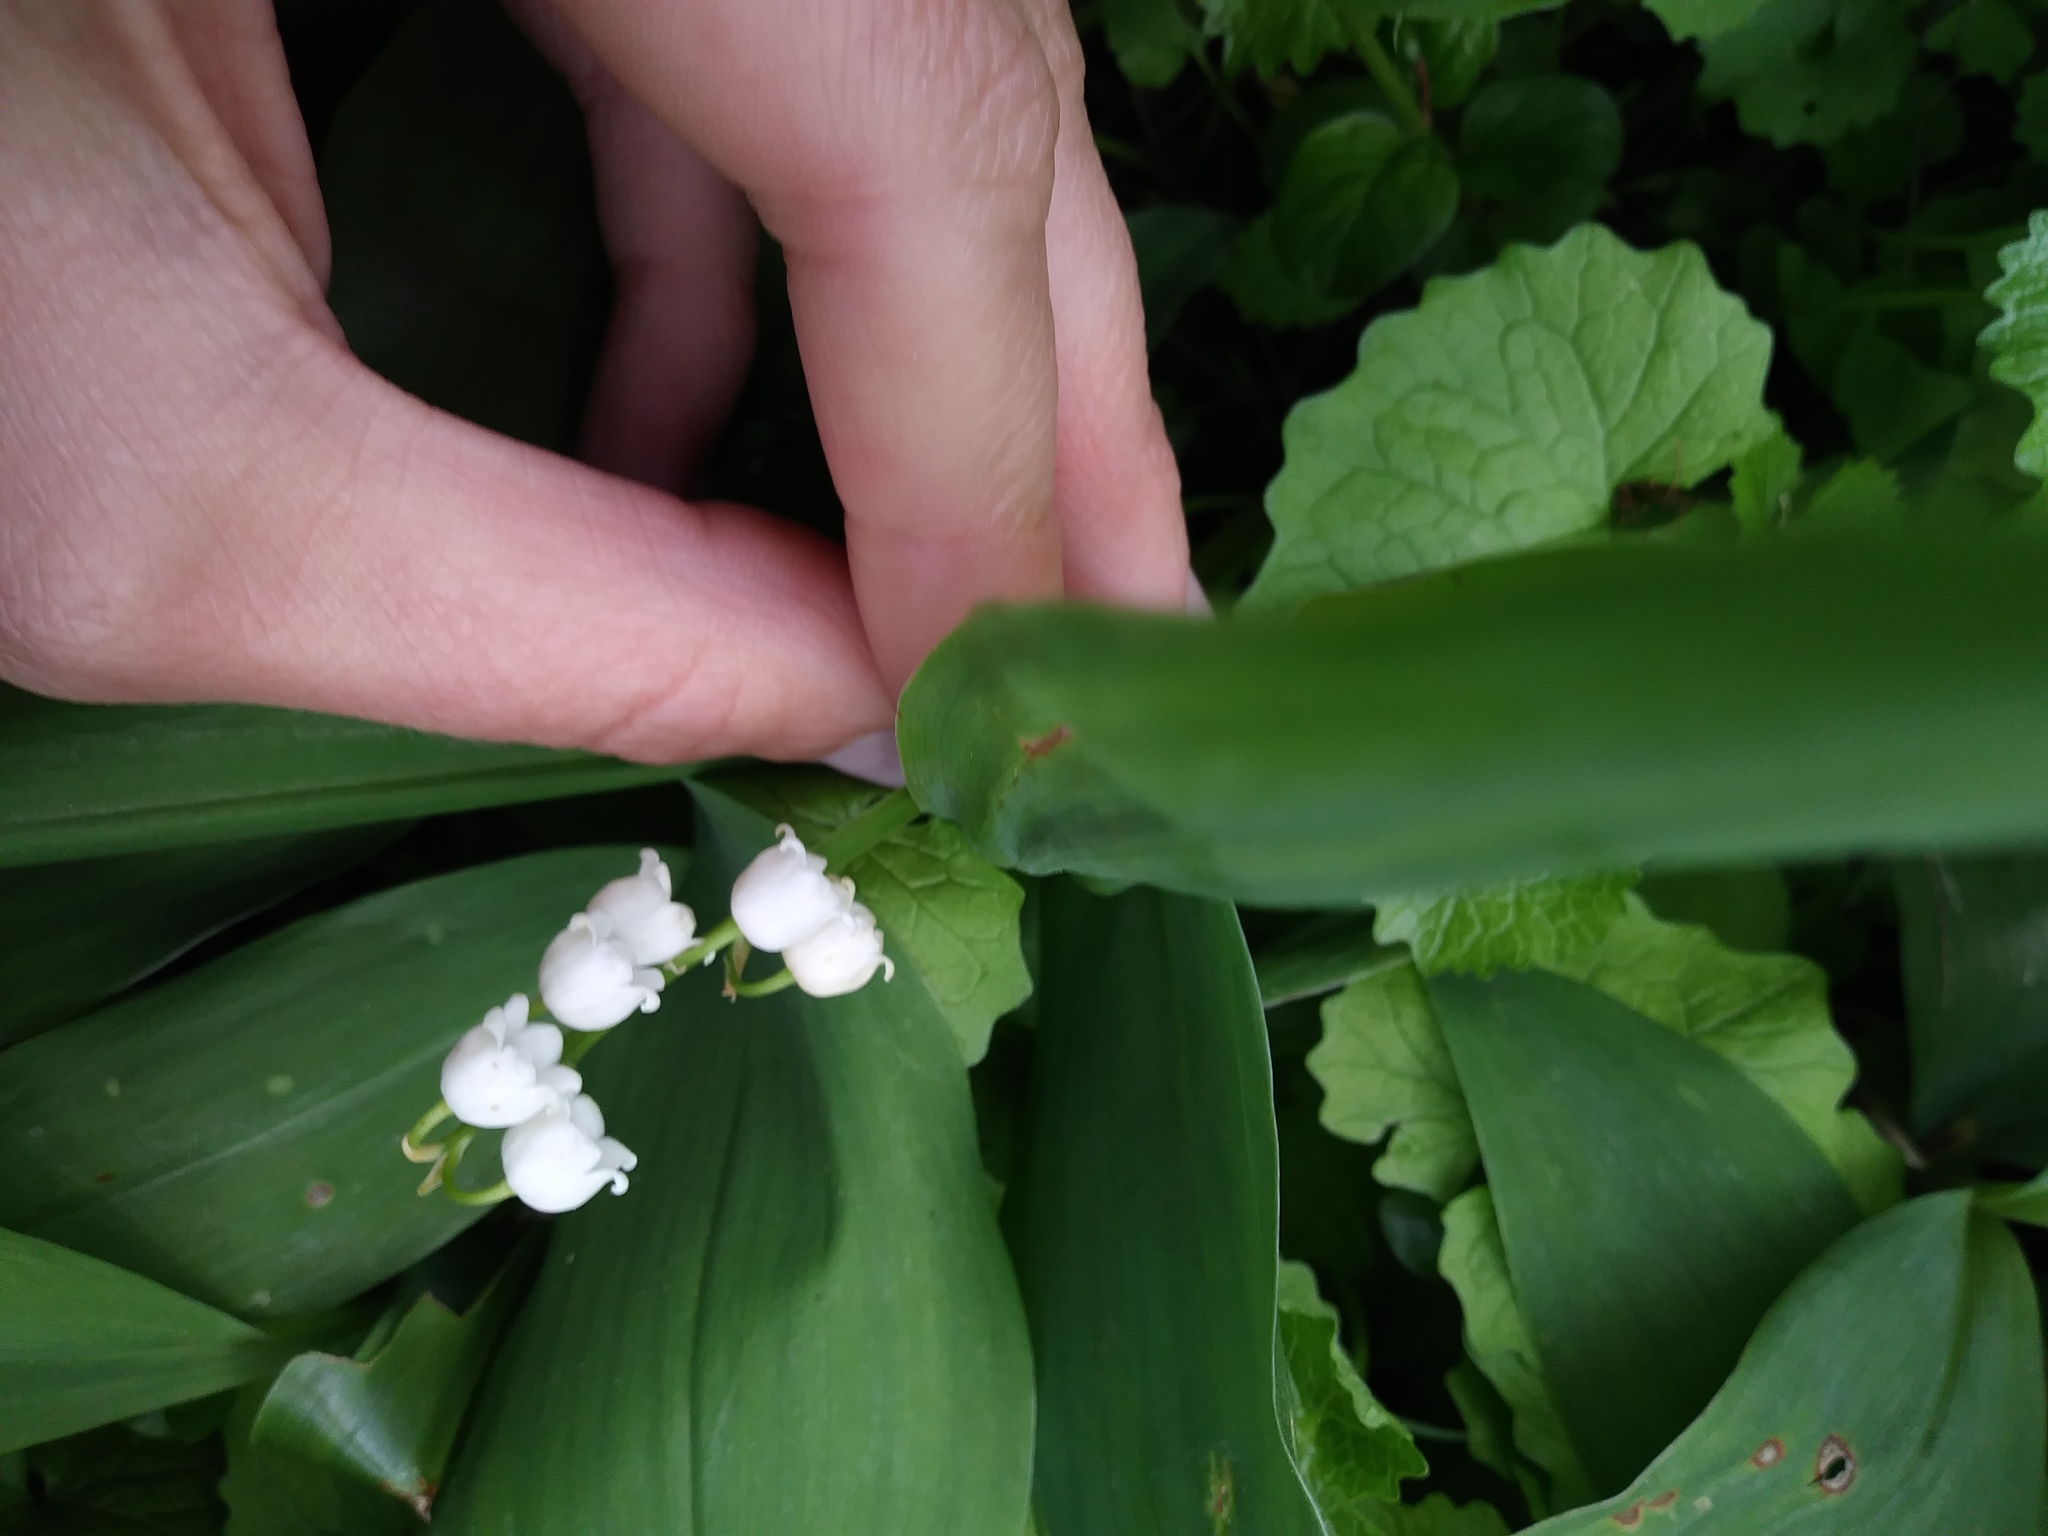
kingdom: Plantae
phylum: Tracheophyta
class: Liliopsida
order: Asparagales
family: Asparagaceae
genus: Convallaria
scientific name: Convallaria majalis
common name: Lily-of-the-valley
